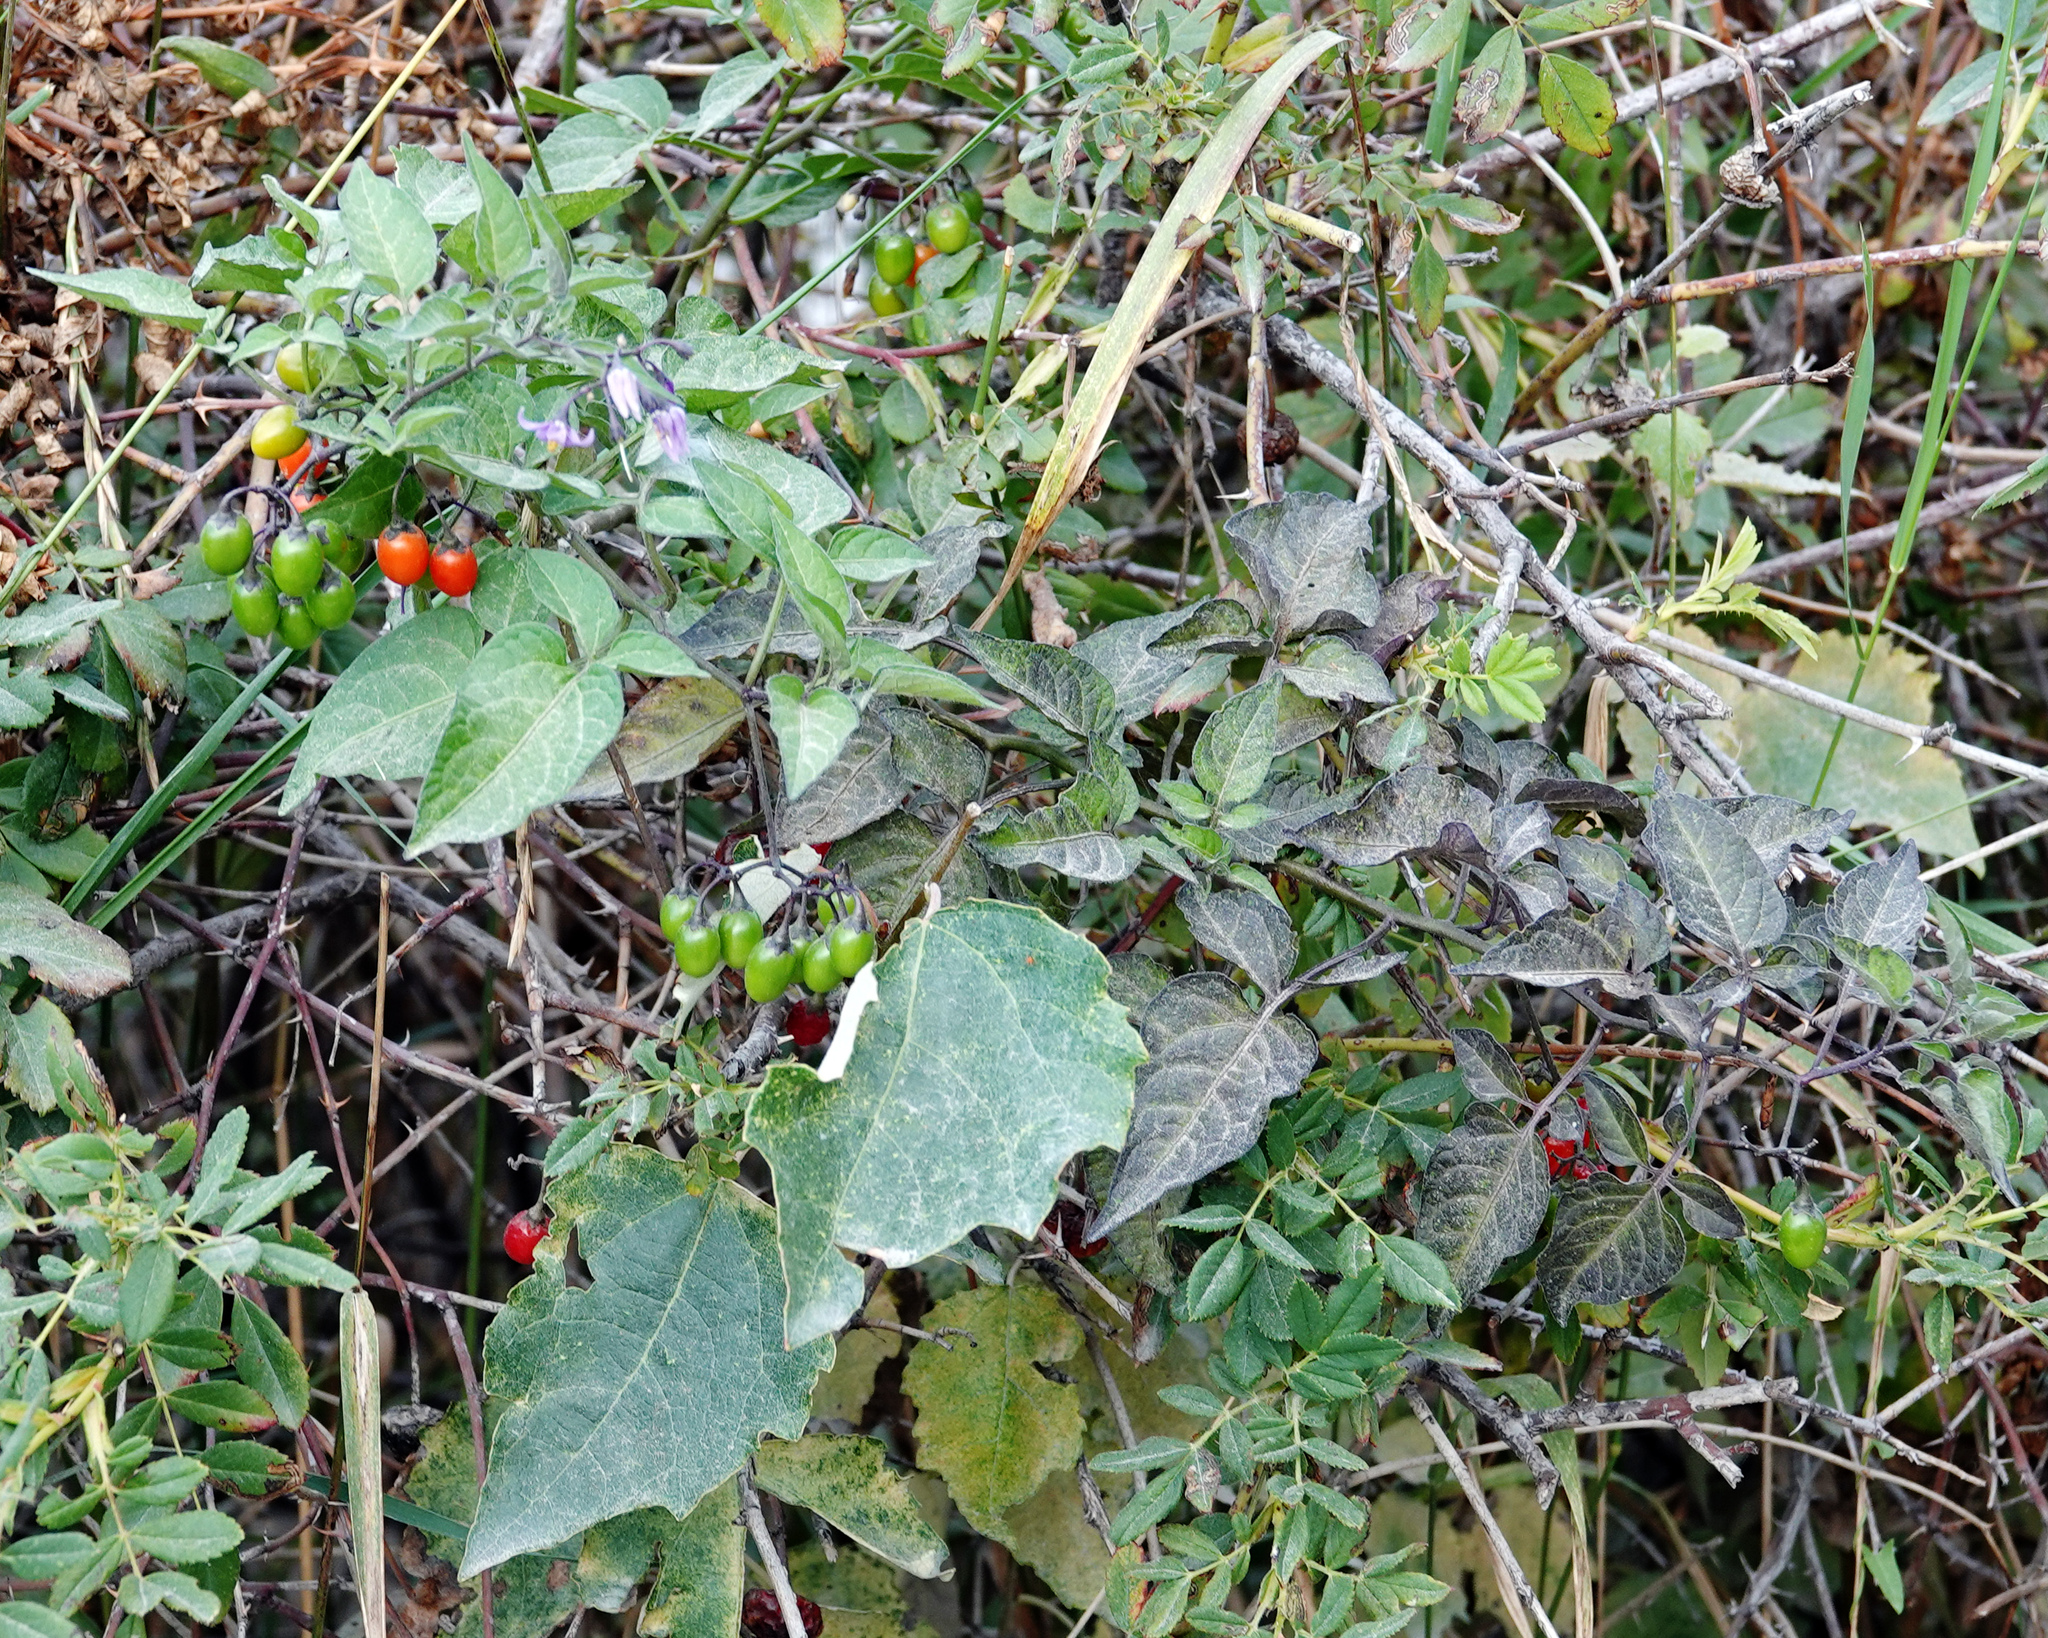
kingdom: Plantae
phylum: Tracheophyta
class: Magnoliopsida
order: Solanales
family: Solanaceae
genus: Solanum
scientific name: Solanum dulcamara
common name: Climbing nightshade
